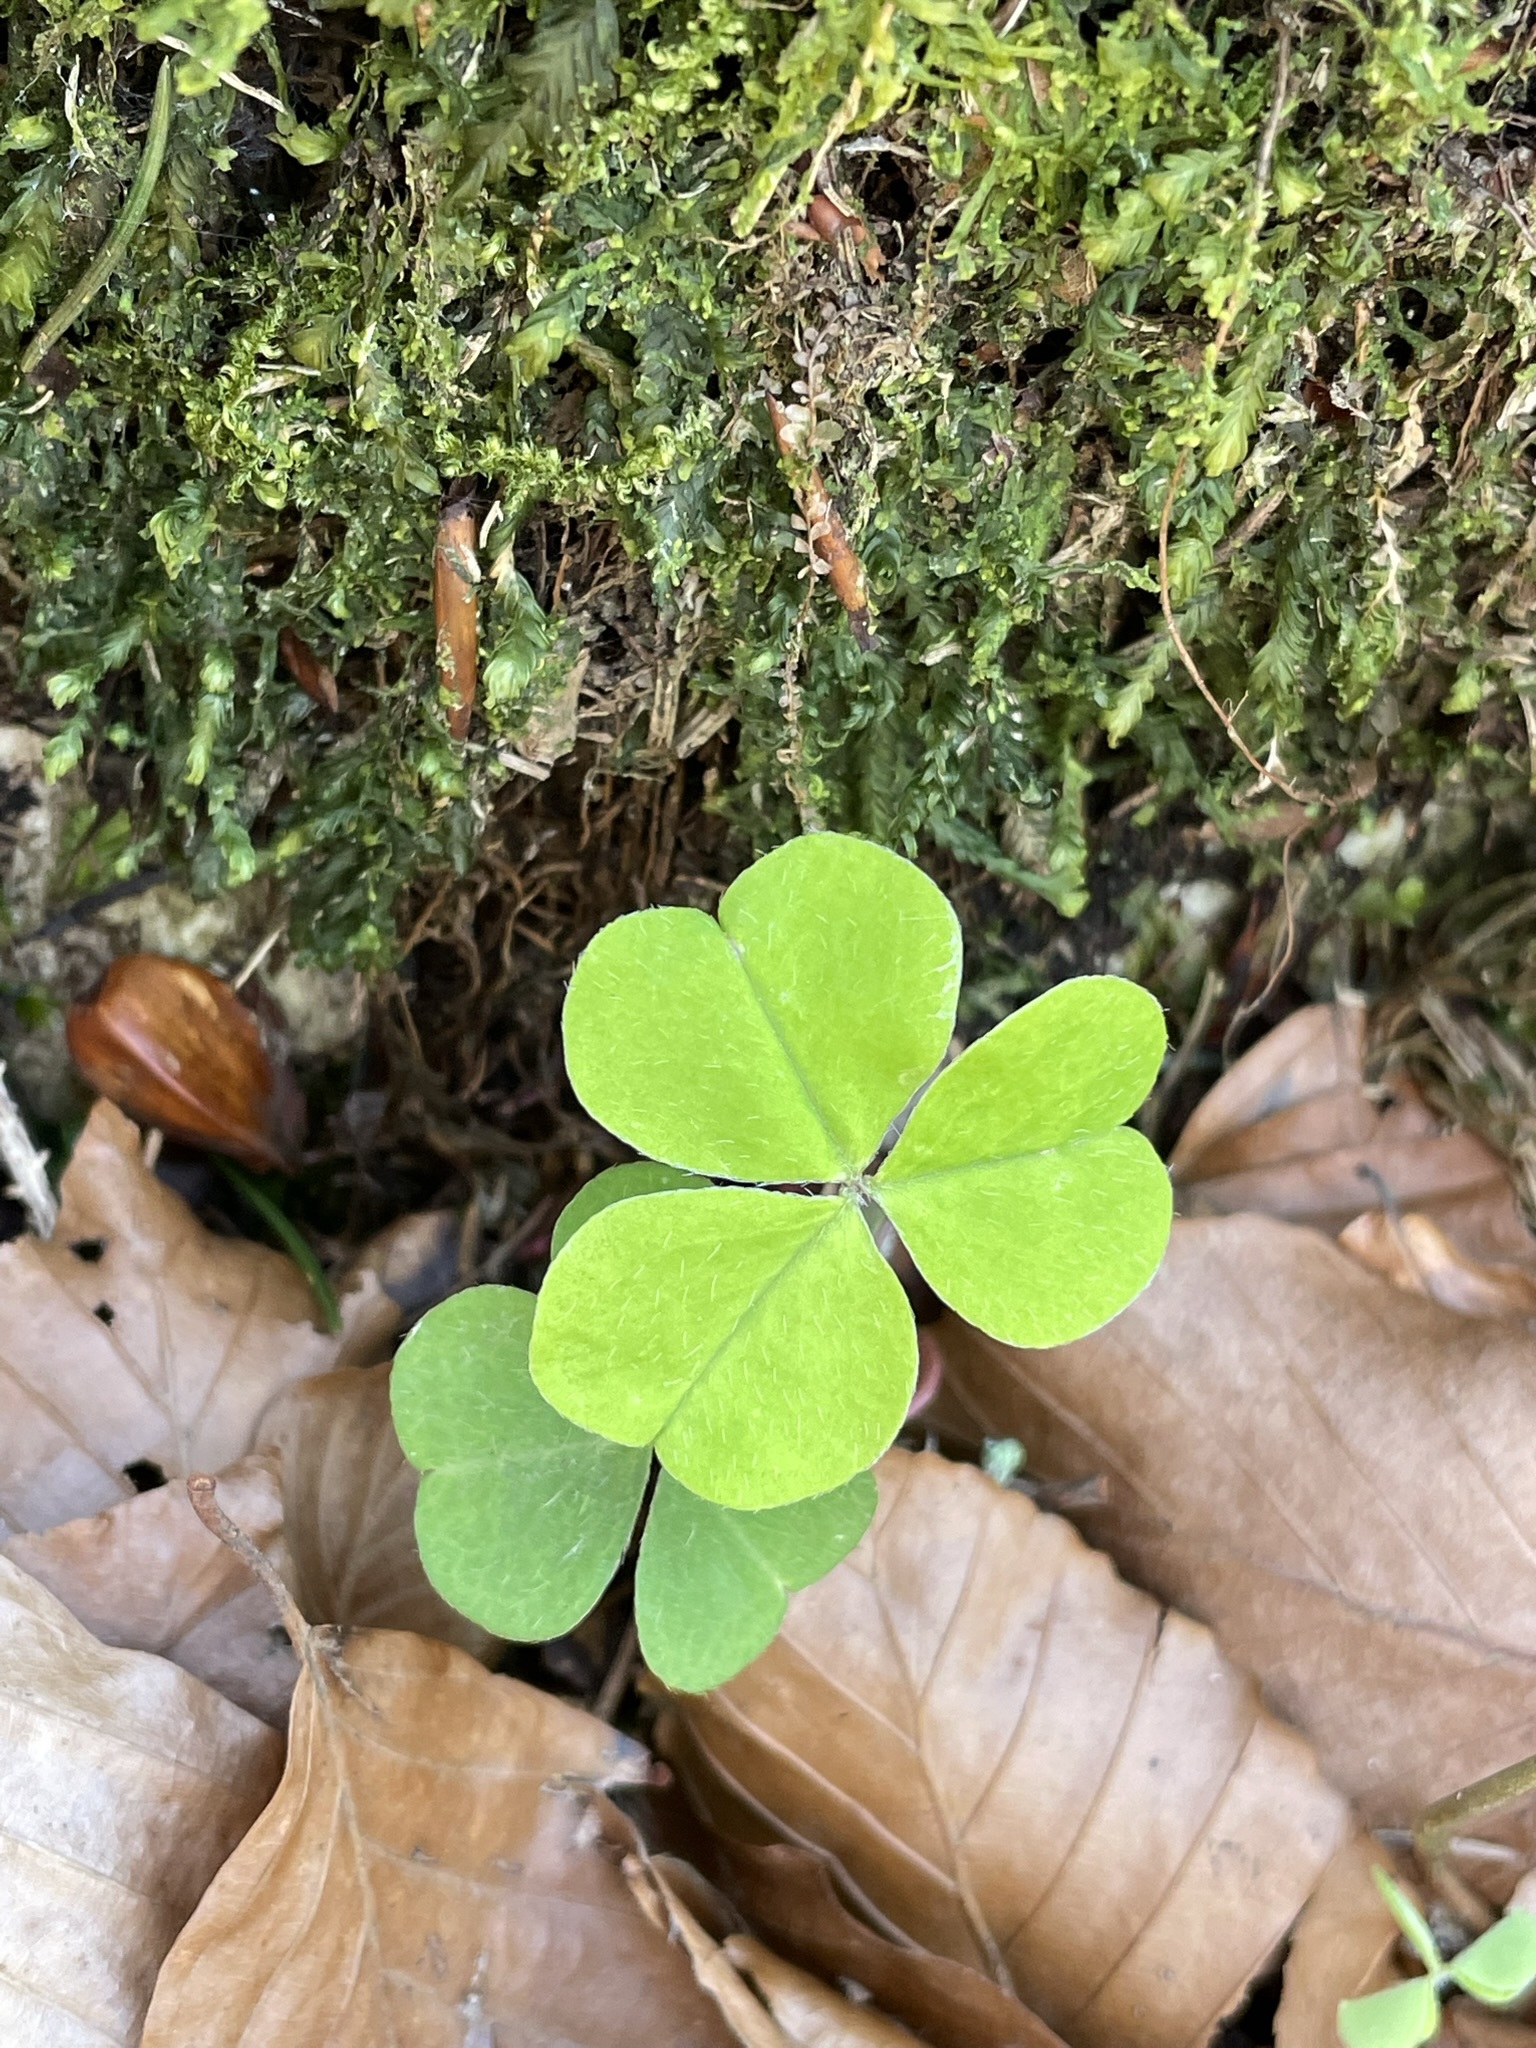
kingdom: Plantae
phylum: Tracheophyta
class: Magnoliopsida
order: Oxalidales
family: Oxalidaceae
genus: Oxalis
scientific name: Oxalis acetosella
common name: Wood-sorrel
